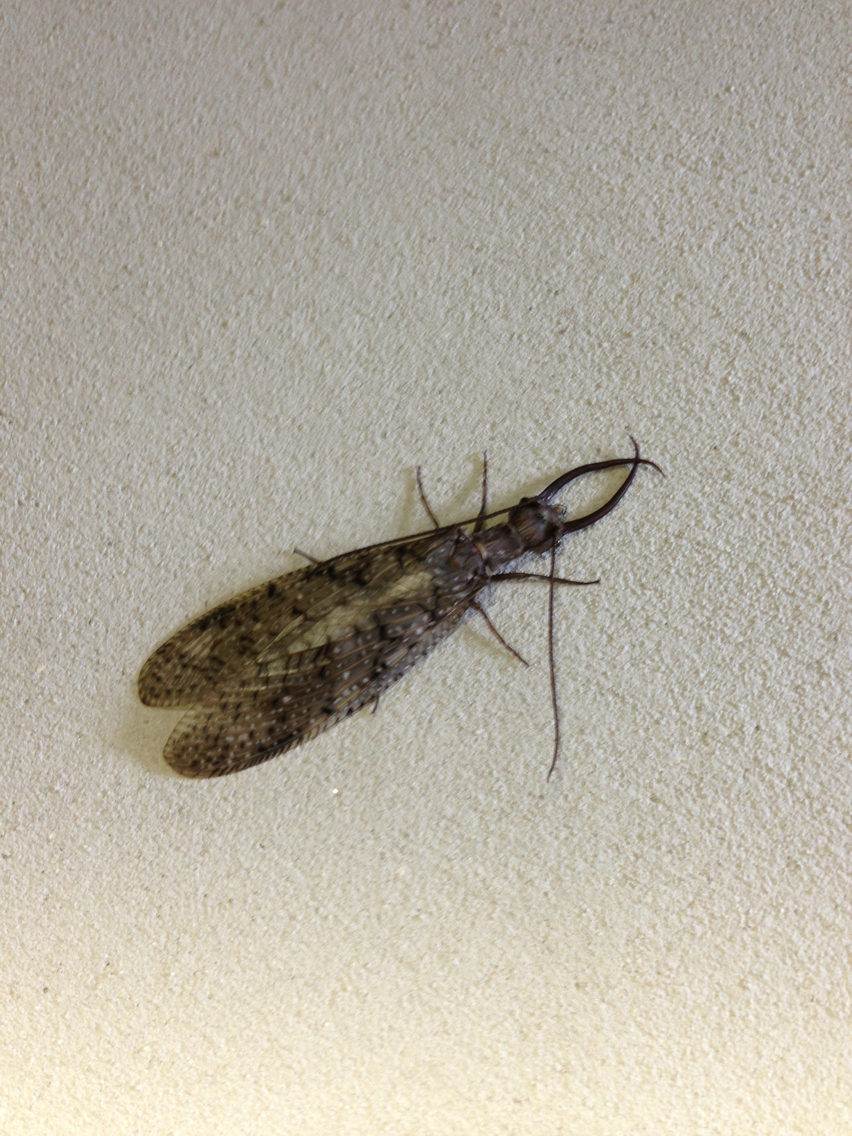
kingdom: Animalia
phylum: Arthropoda
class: Insecta
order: Megaloptera
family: Corydalidae
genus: Corydalus
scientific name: Corydalus cornutus
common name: Dobsonfly
